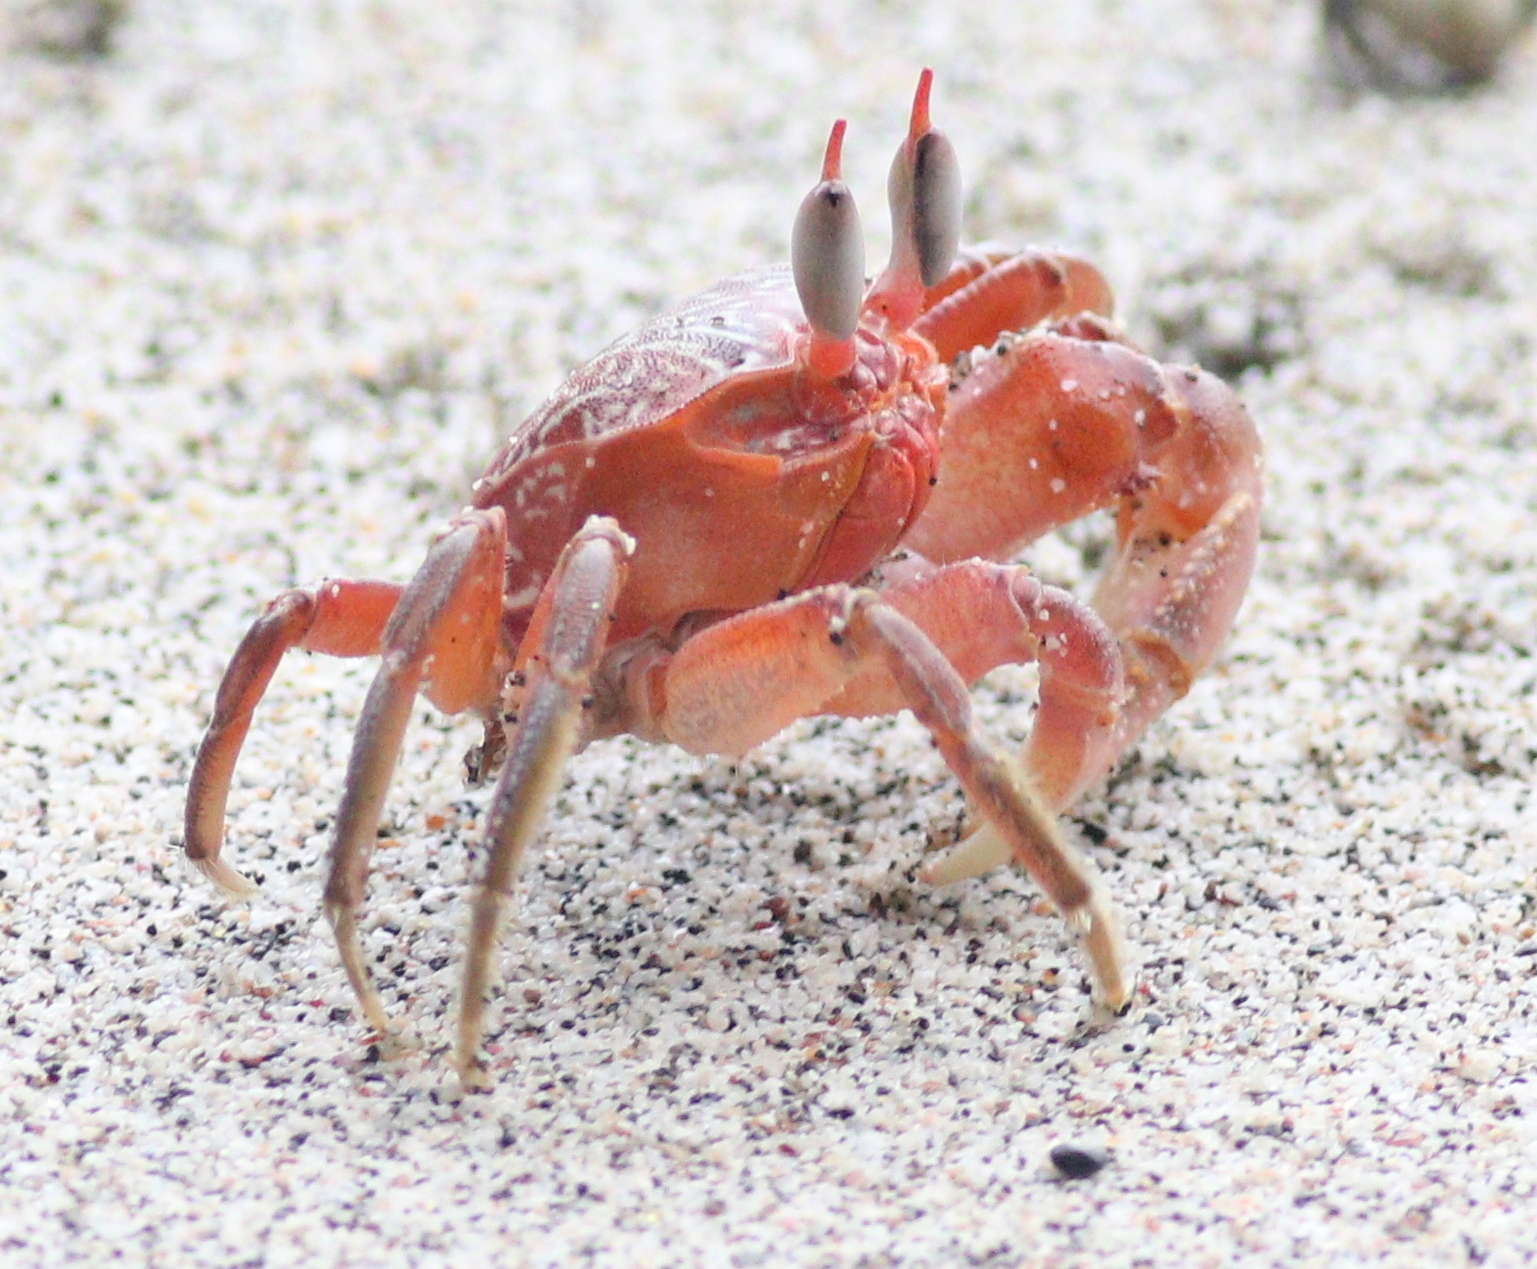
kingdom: Animalia
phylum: Arthropoda
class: Malacostraca
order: Decapoda
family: Ocypodidae
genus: Ocypode
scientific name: Ocypode gaudichaudii
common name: Pacific ghost crab
